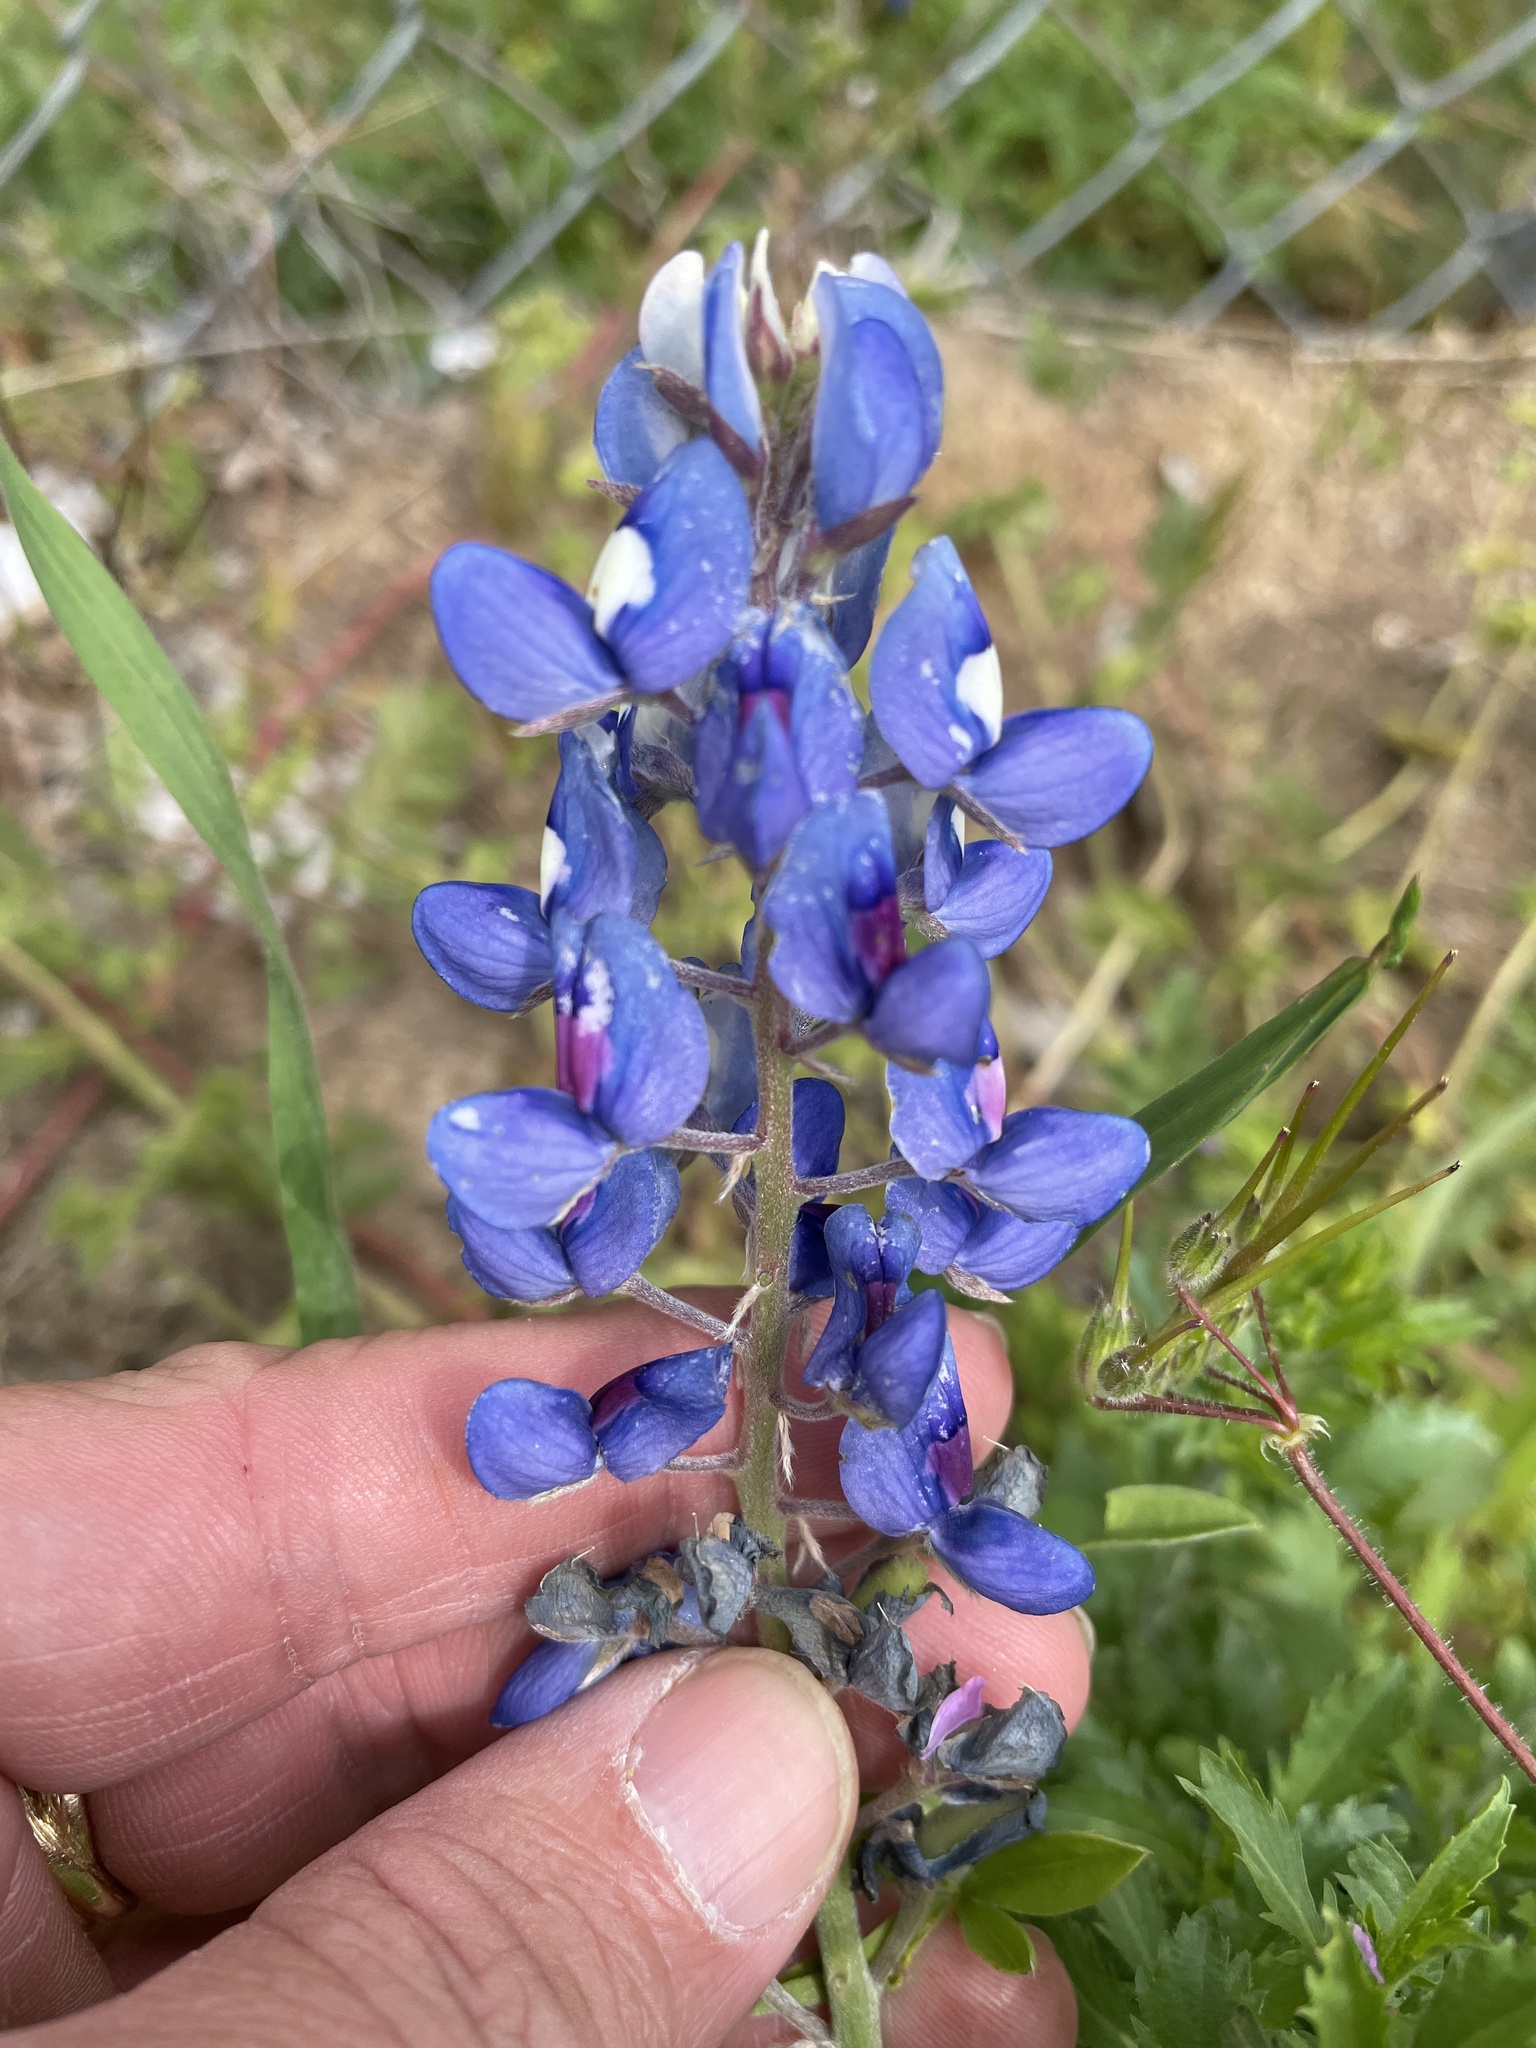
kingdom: Plantae
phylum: Tracheophyta
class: Magnoliopsida
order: Fabales
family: Fabaceae
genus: Lupinus
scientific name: Lupinus texensis
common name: Texas bluebonnet
